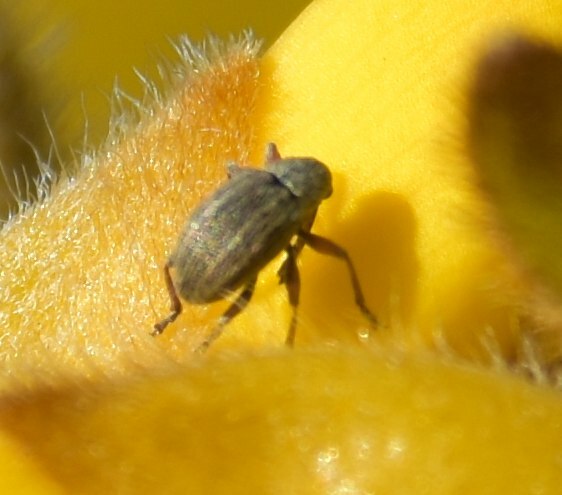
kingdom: Animalia
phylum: Arthropoda
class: Insecta
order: Coleoptera
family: Brentidae
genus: Exapion
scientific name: Exapion ulicis
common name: Gorse seed weevil
